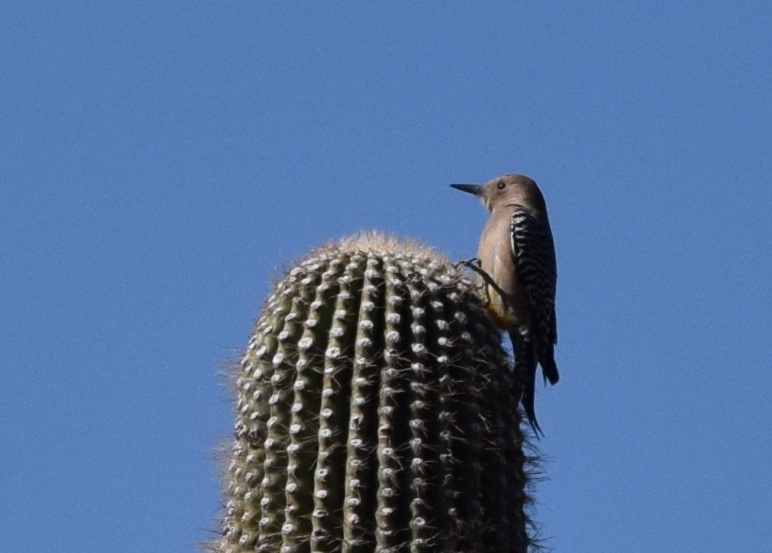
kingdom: Animalia
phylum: Chordata
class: Aves
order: Piciformes
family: Picidae
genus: Melanerpes
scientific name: Melanerpes uropygialis
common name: Gila woodpecker
